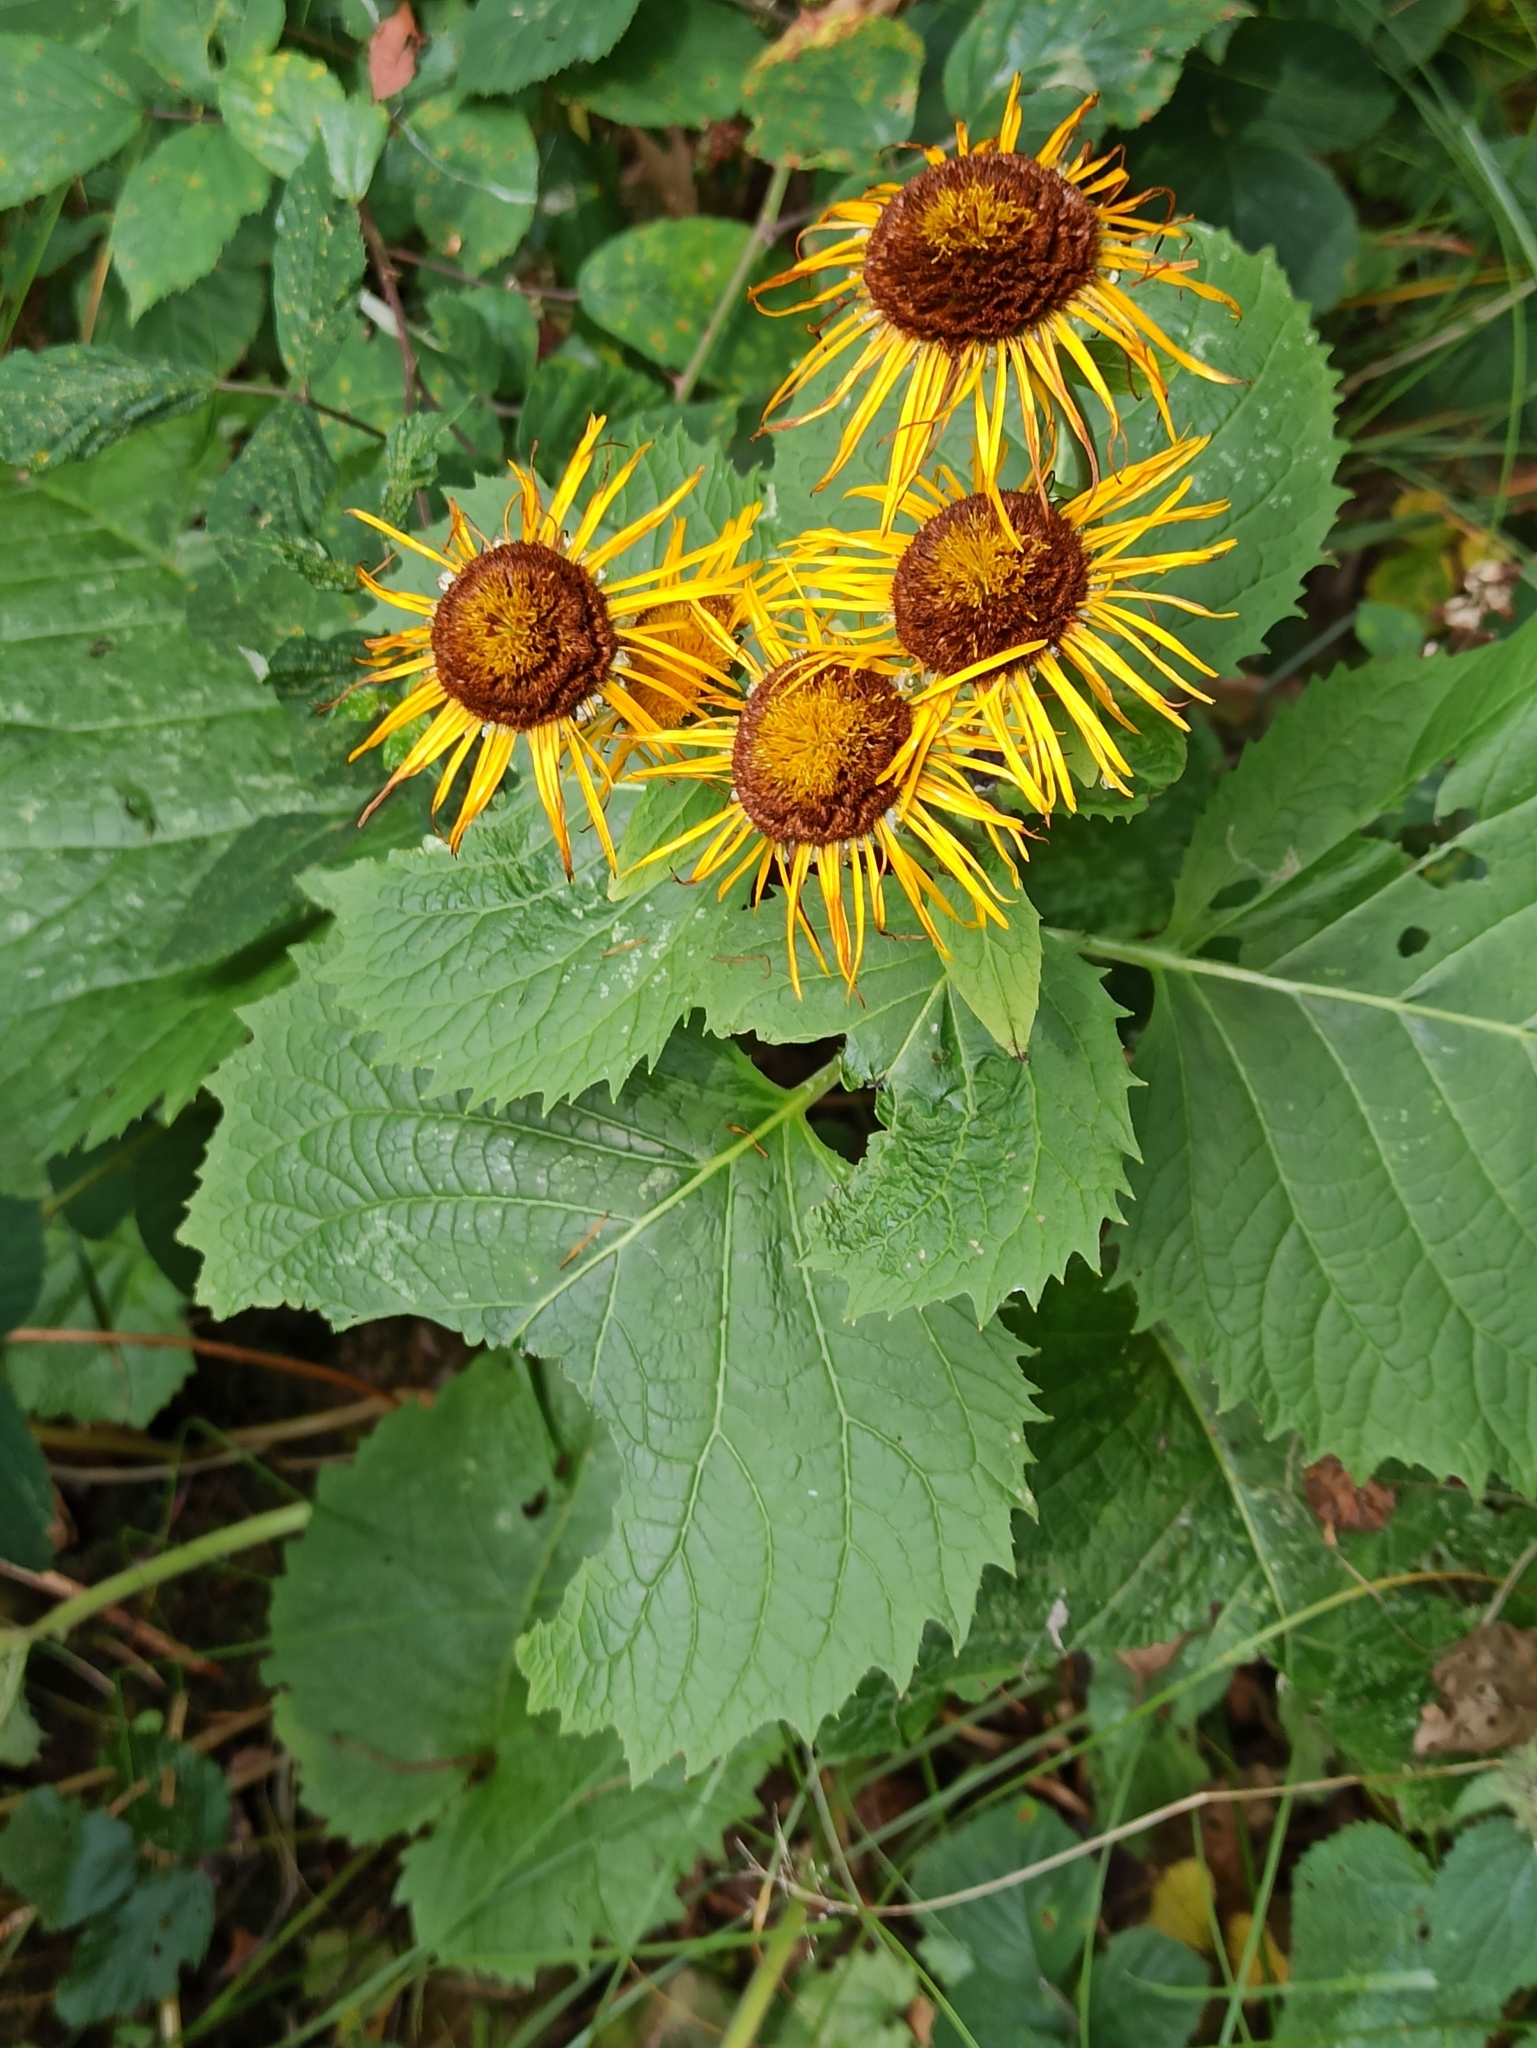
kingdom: Plantae
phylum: Tracheophyta
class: Magnoliopsida
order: Asterales
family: Asteraceae
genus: Telekia
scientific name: Telekia speciosa
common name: Yellow oxeye
